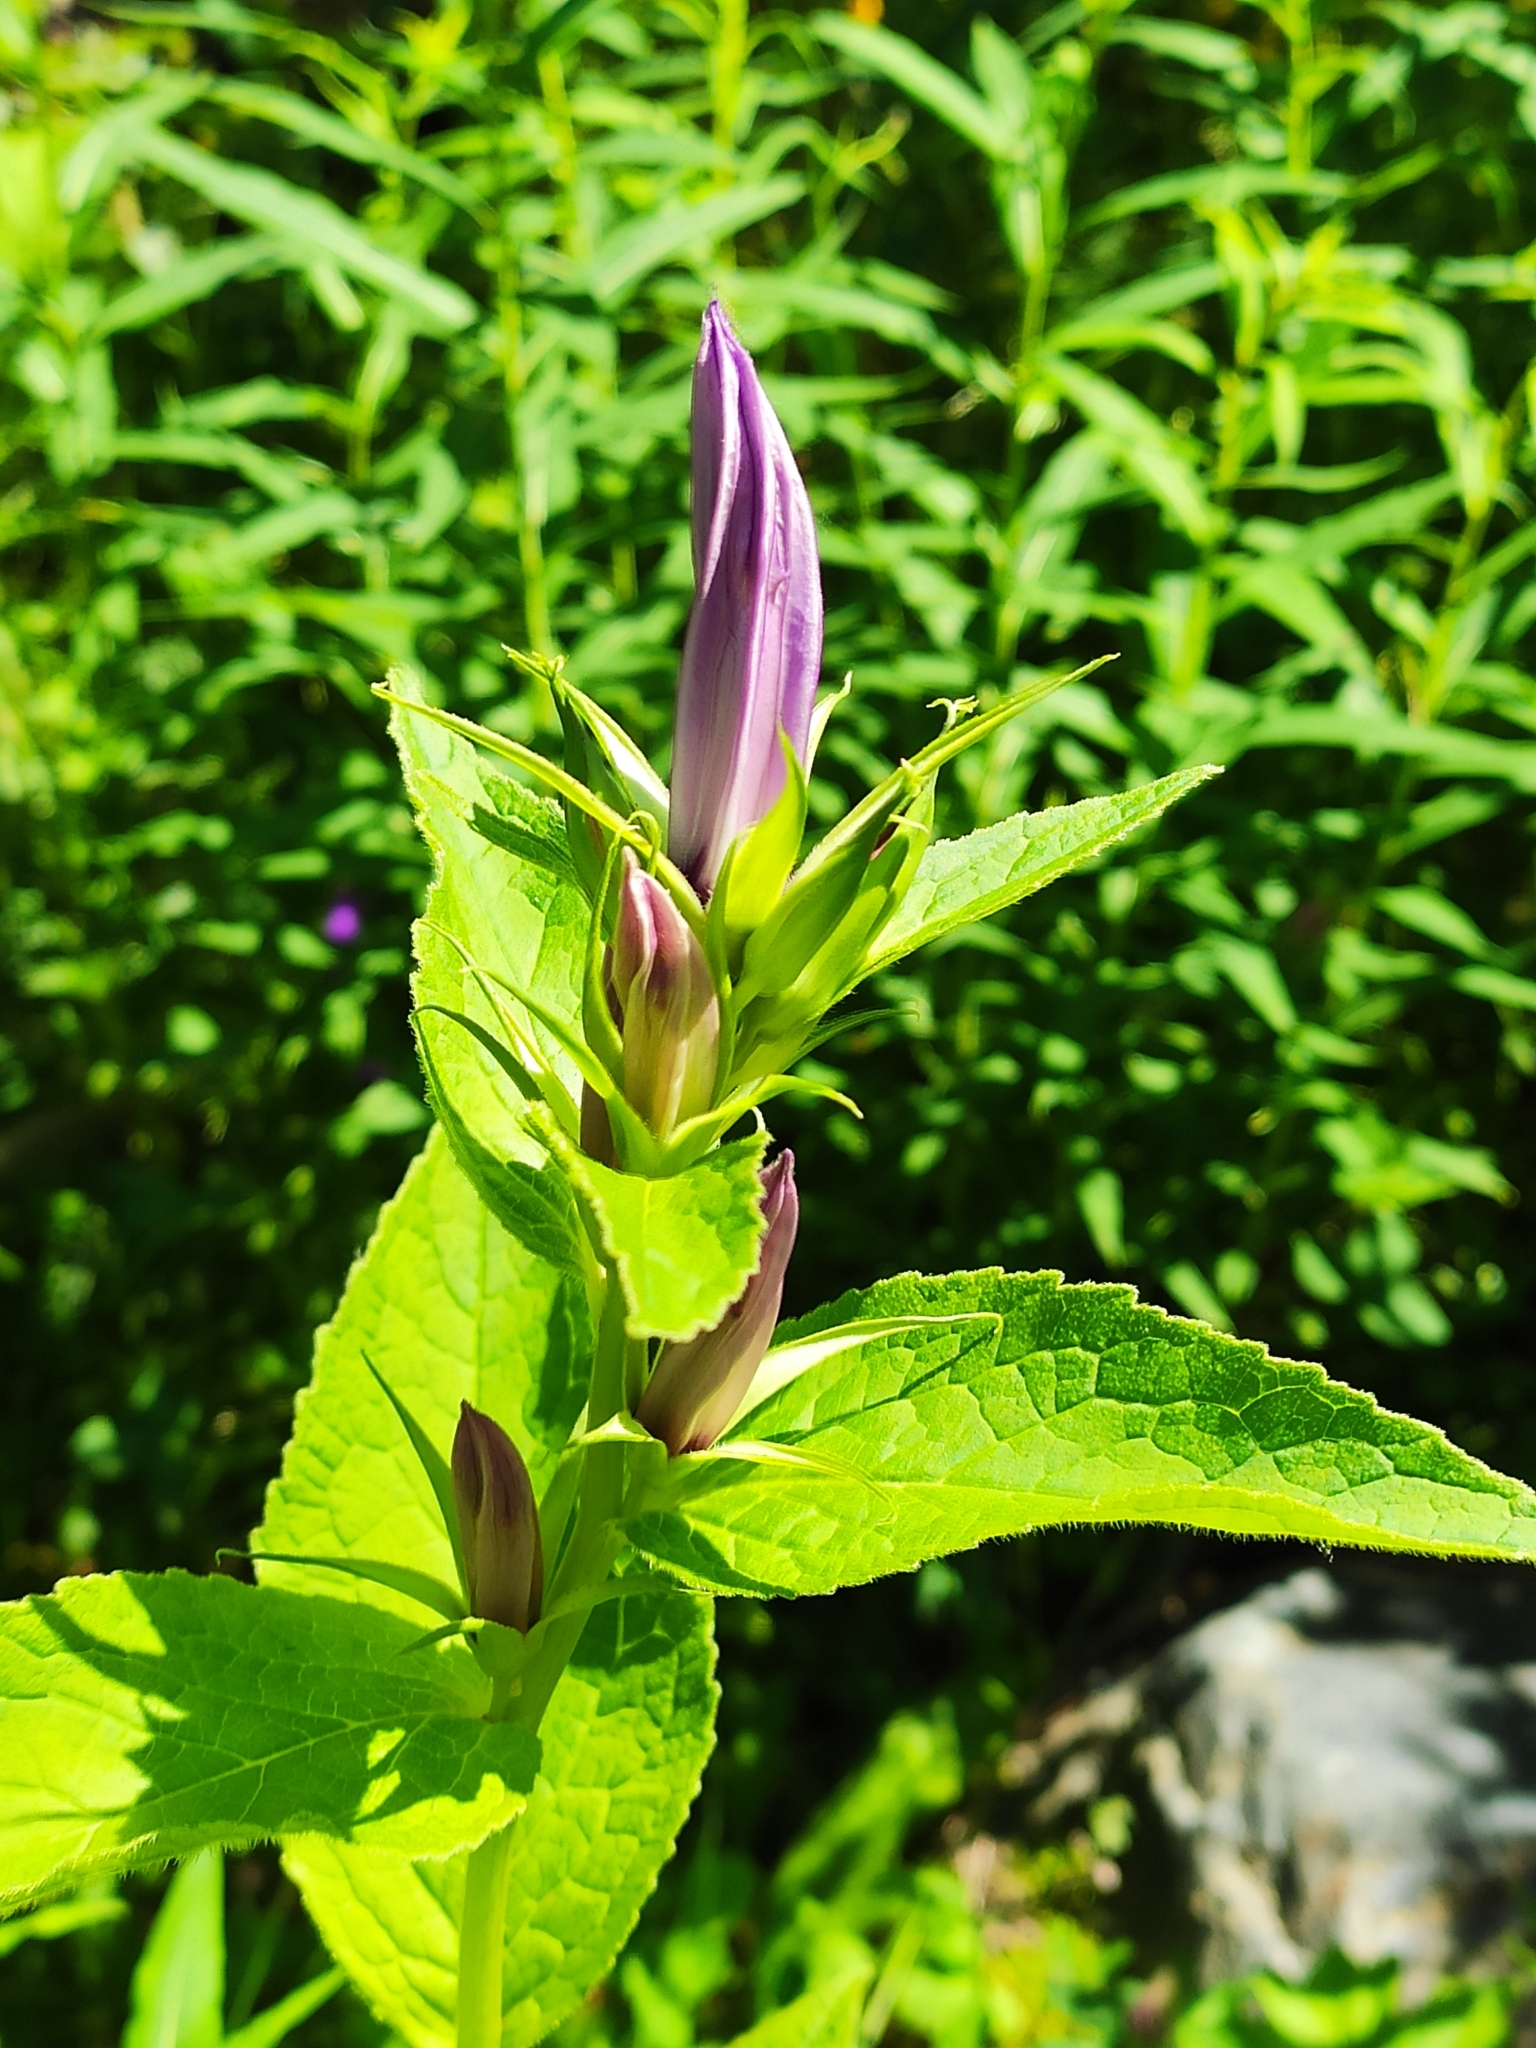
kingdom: Plantae
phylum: Tracheophyta
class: Magnoliopsida
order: Asterales
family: Campanulaceae
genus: Campanula
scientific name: Campanula latifolia
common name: Giant bellflower
